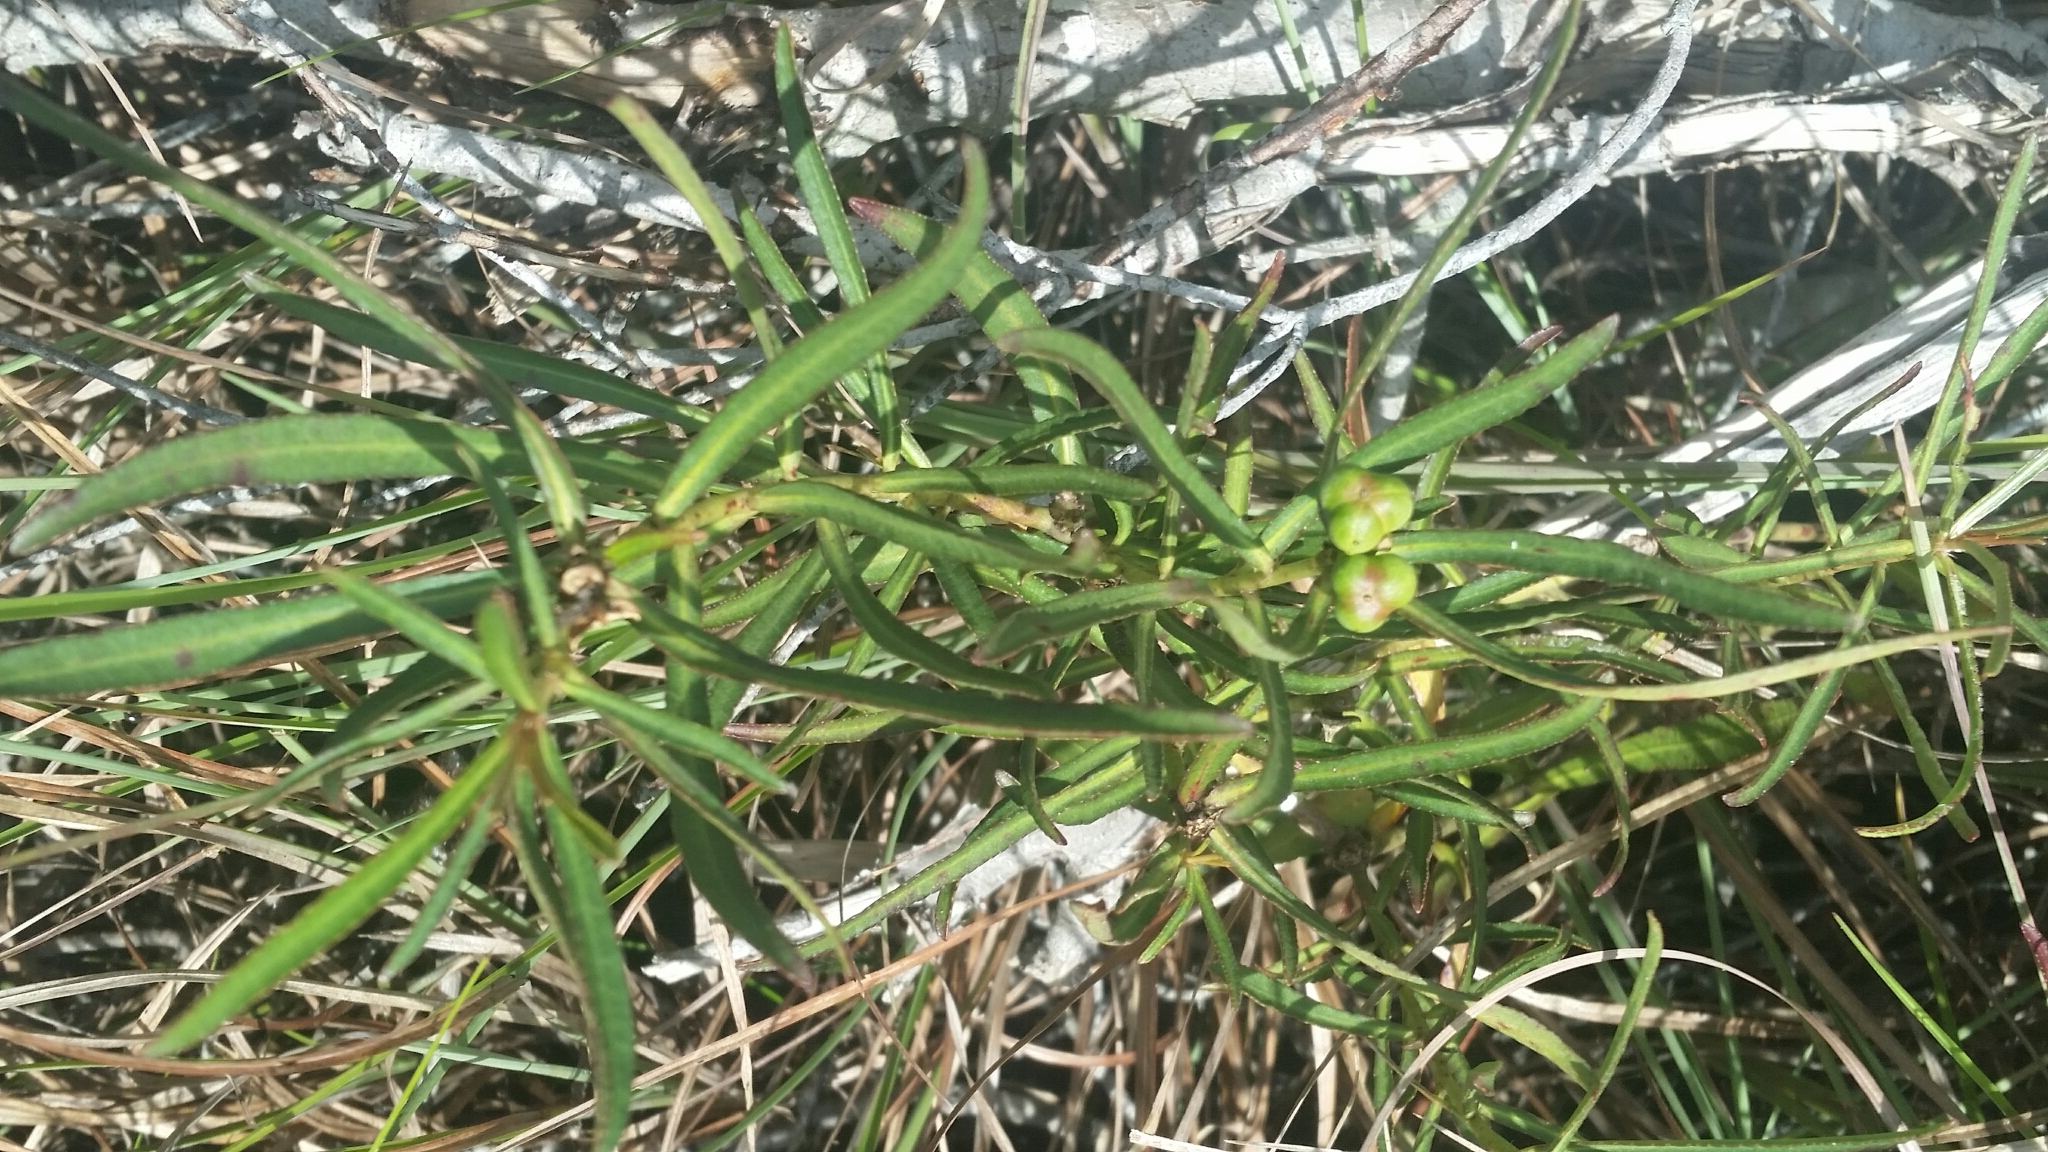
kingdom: Plantae
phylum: Tracheophyta
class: Magnoliopsida
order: Malpighiales
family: Euphorbiaceae
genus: Stillingia
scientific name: Stillingia sylvatica
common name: Queen's-delight
